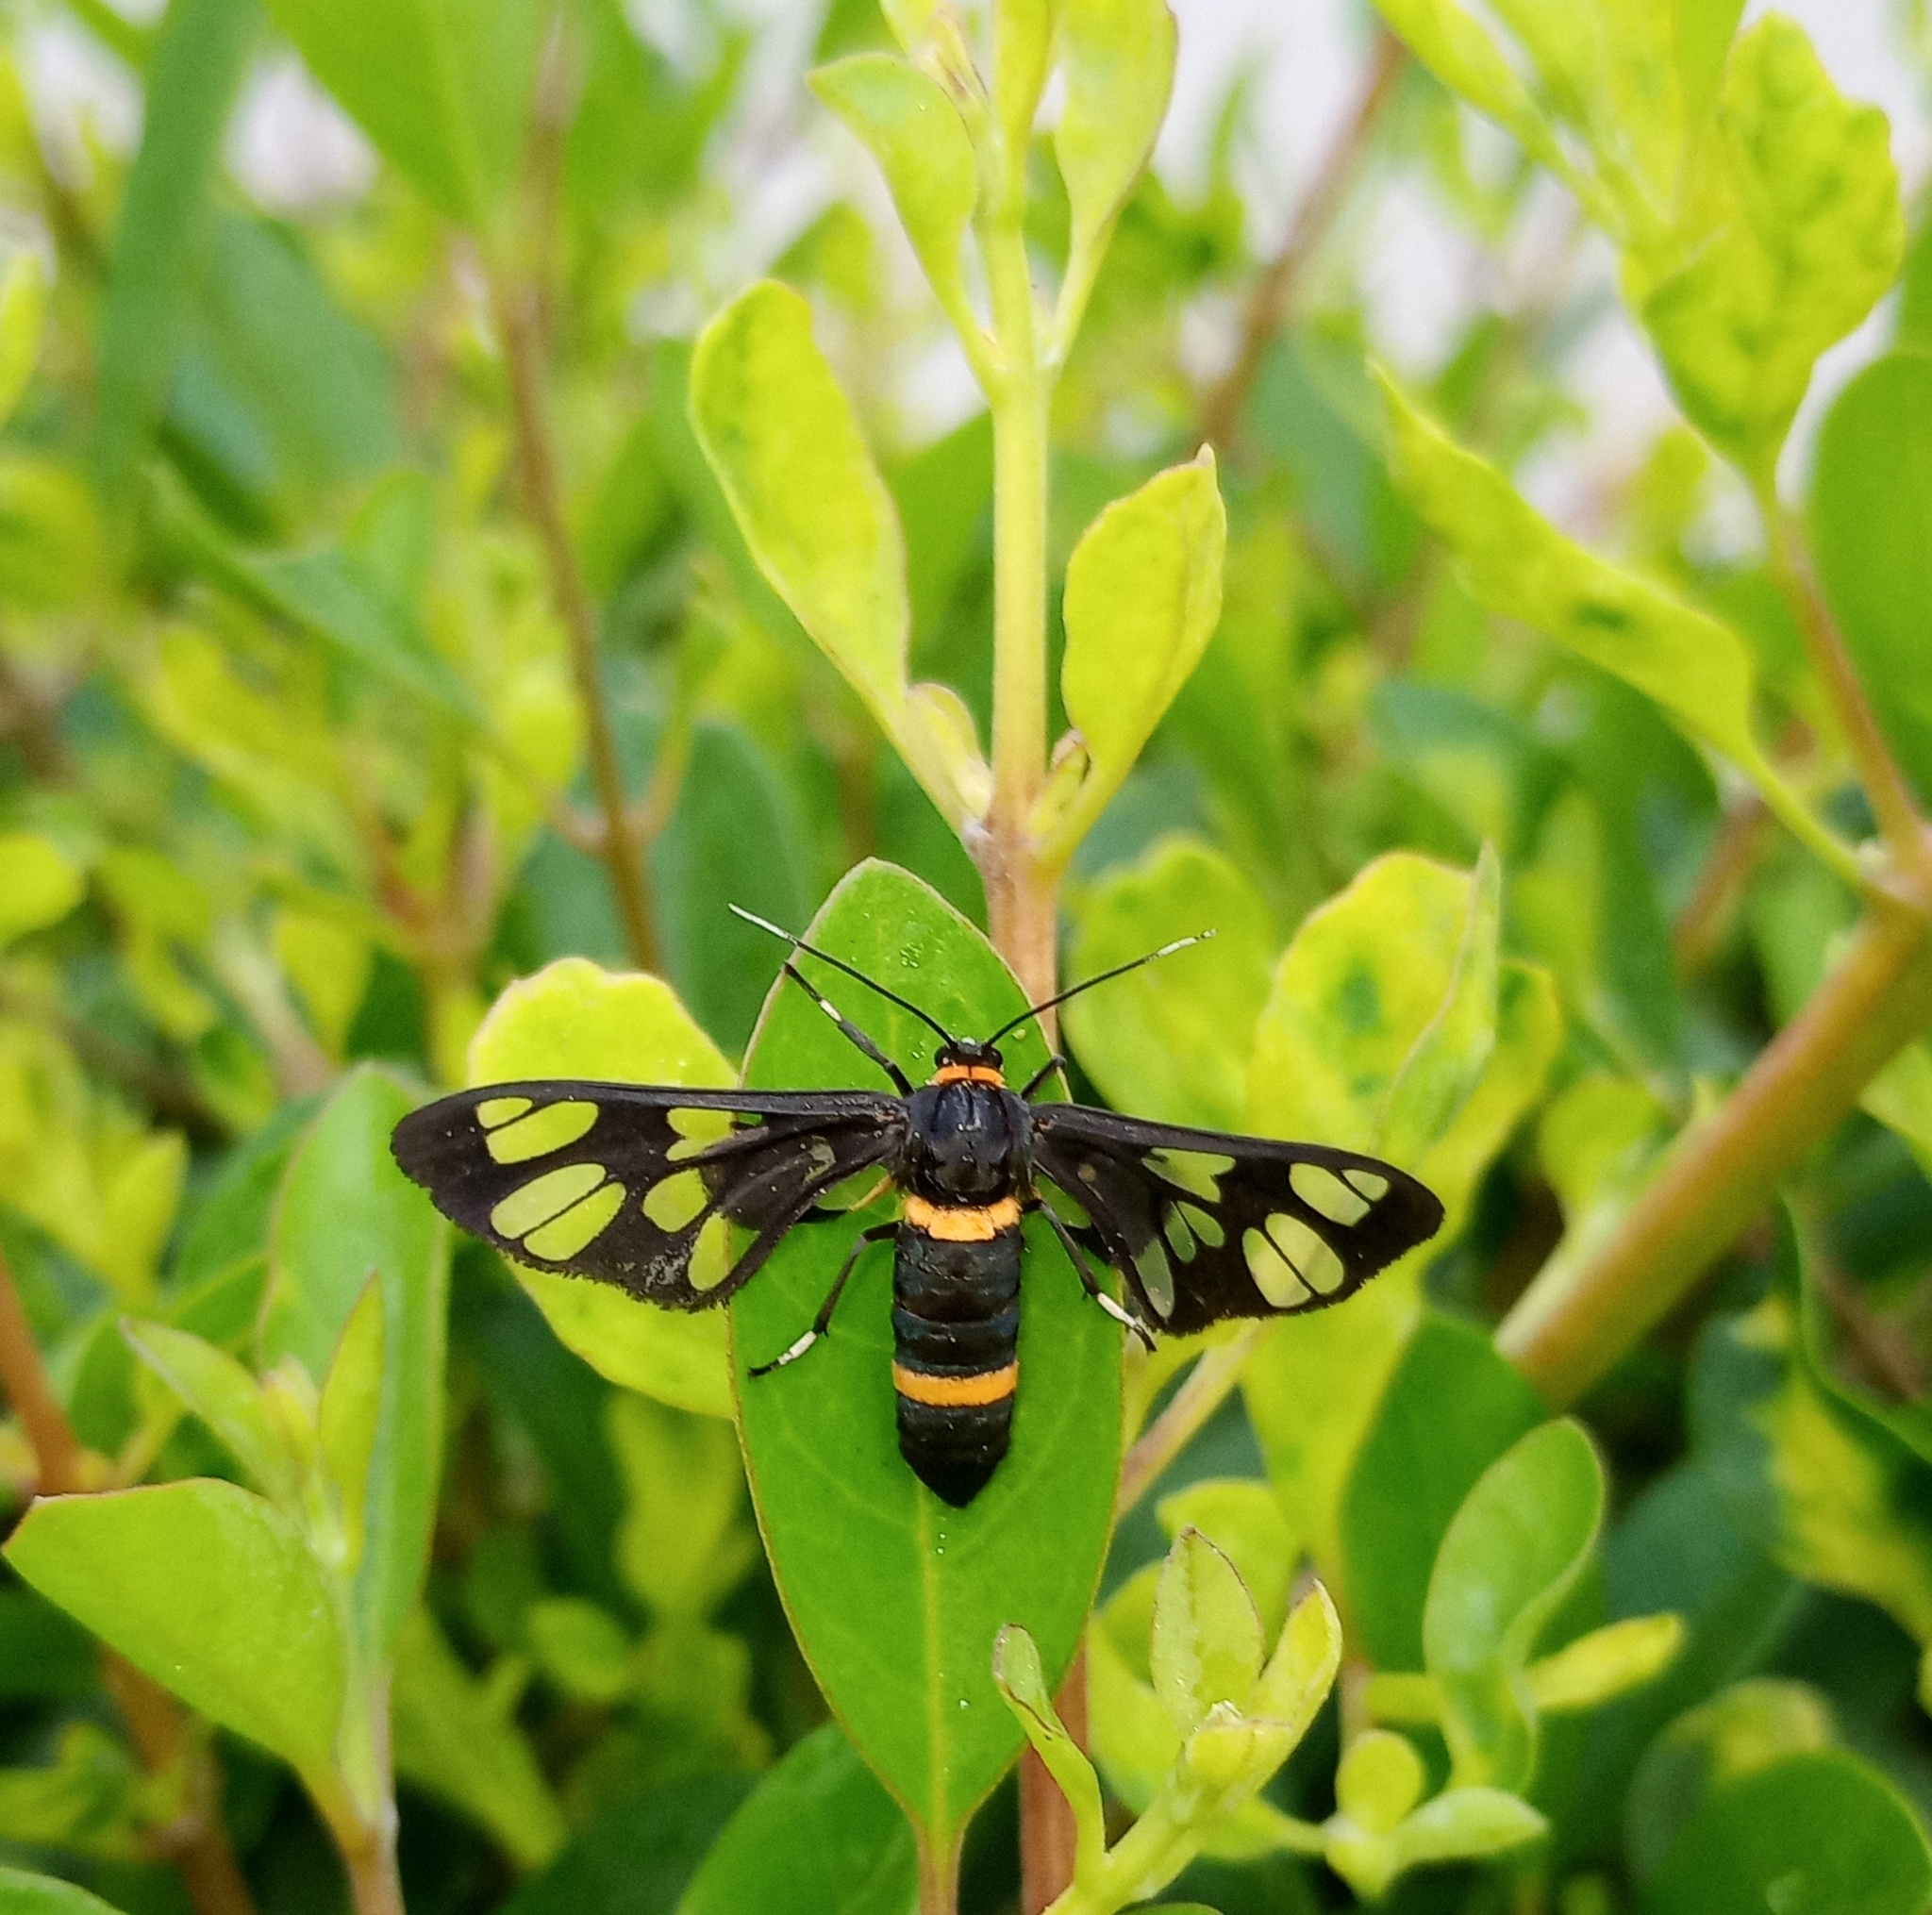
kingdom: Animalia
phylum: Arthropoda
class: Insecta
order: Lepidoptera
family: Erebidae
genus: Syntomoides
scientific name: Syntomoides imaon
